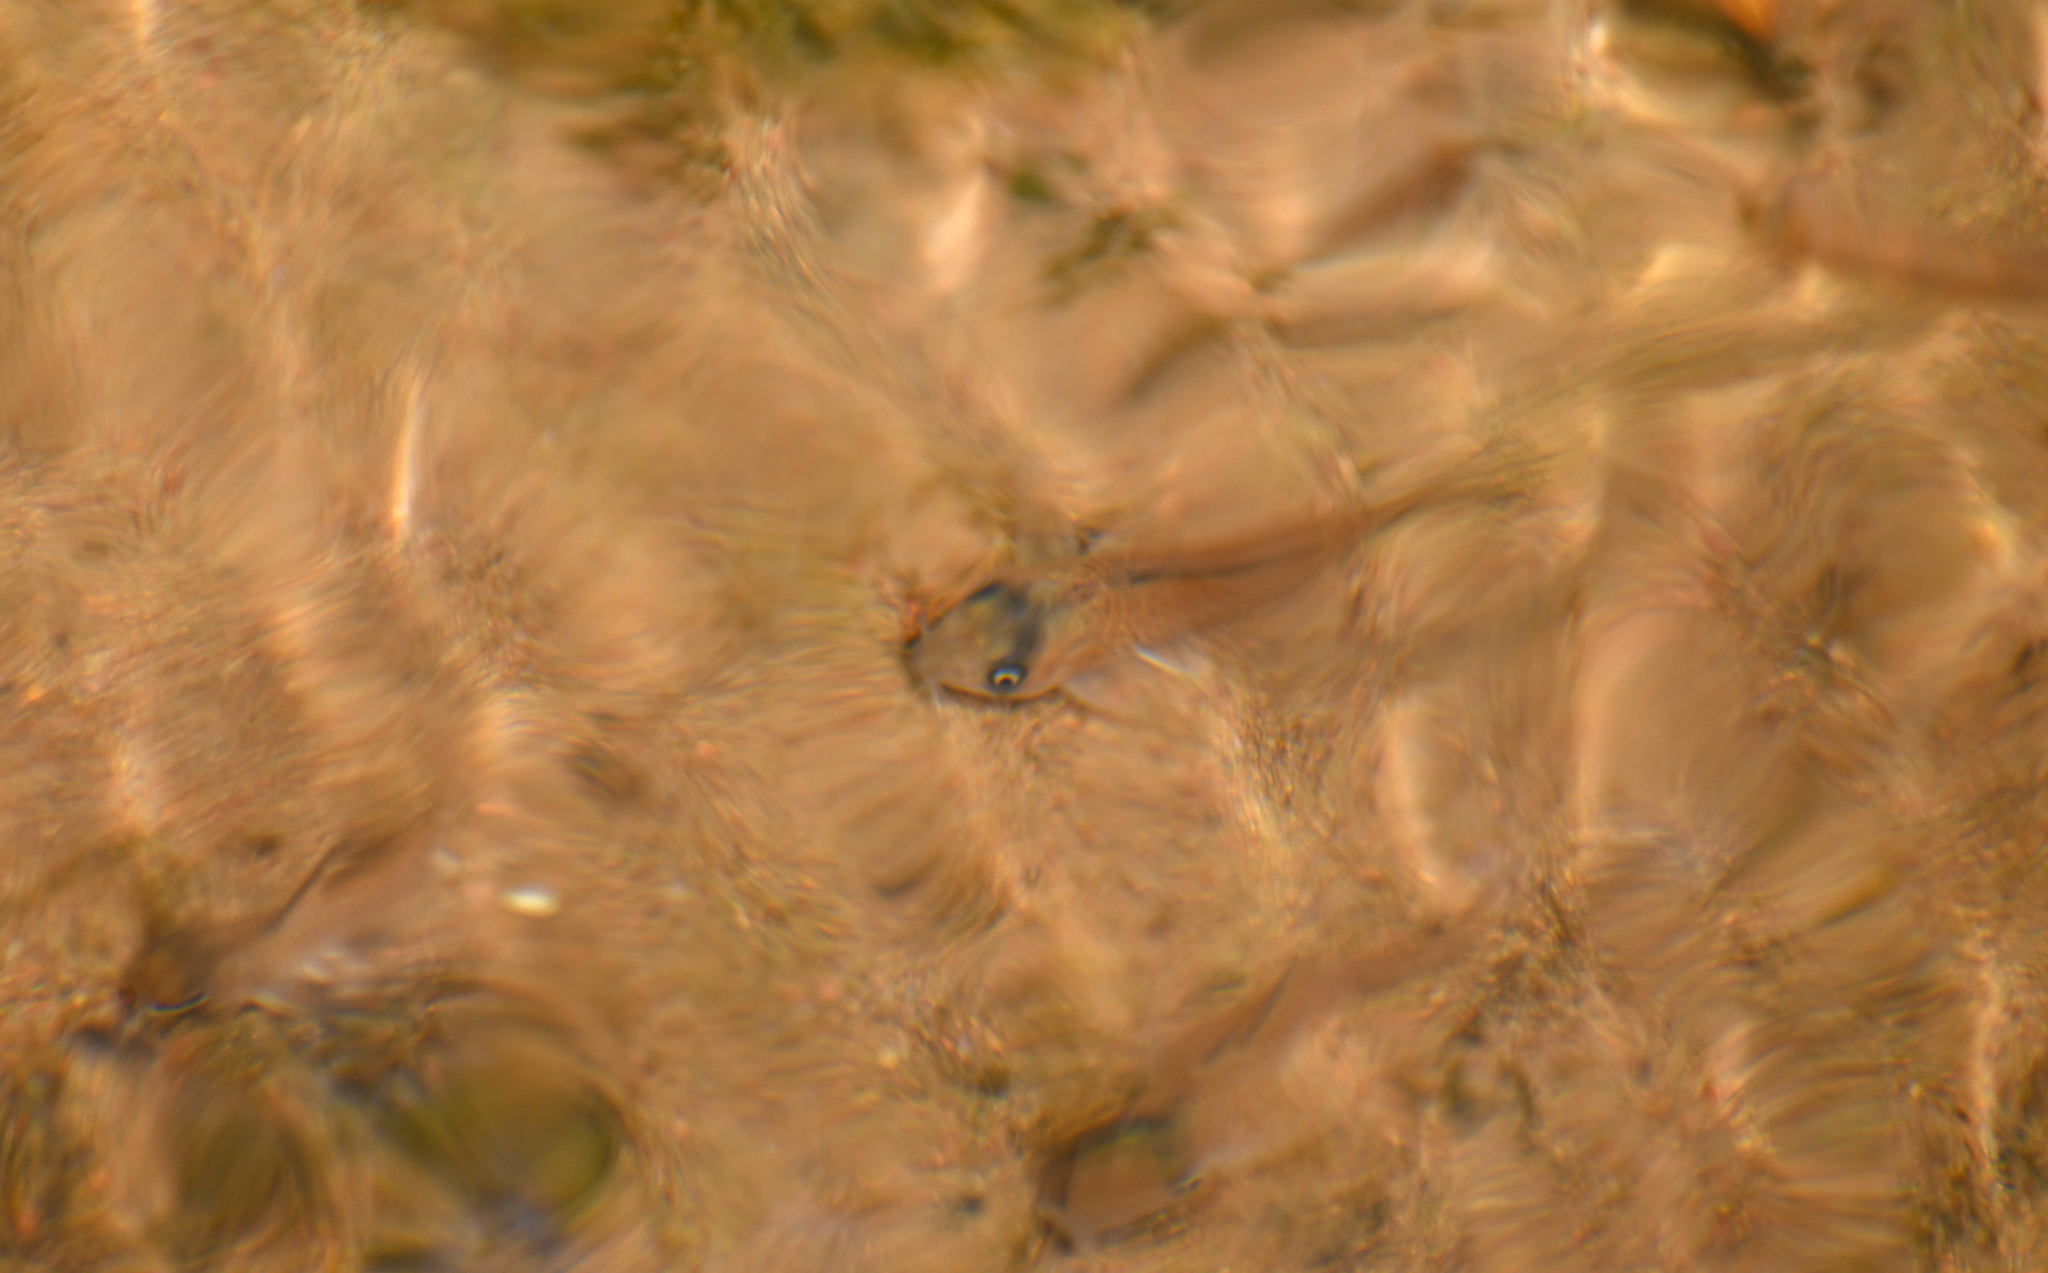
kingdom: Animalia
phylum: Chordata
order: Siluriformes
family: Callichthyidae
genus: Corydoras
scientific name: Corydoras kanei
